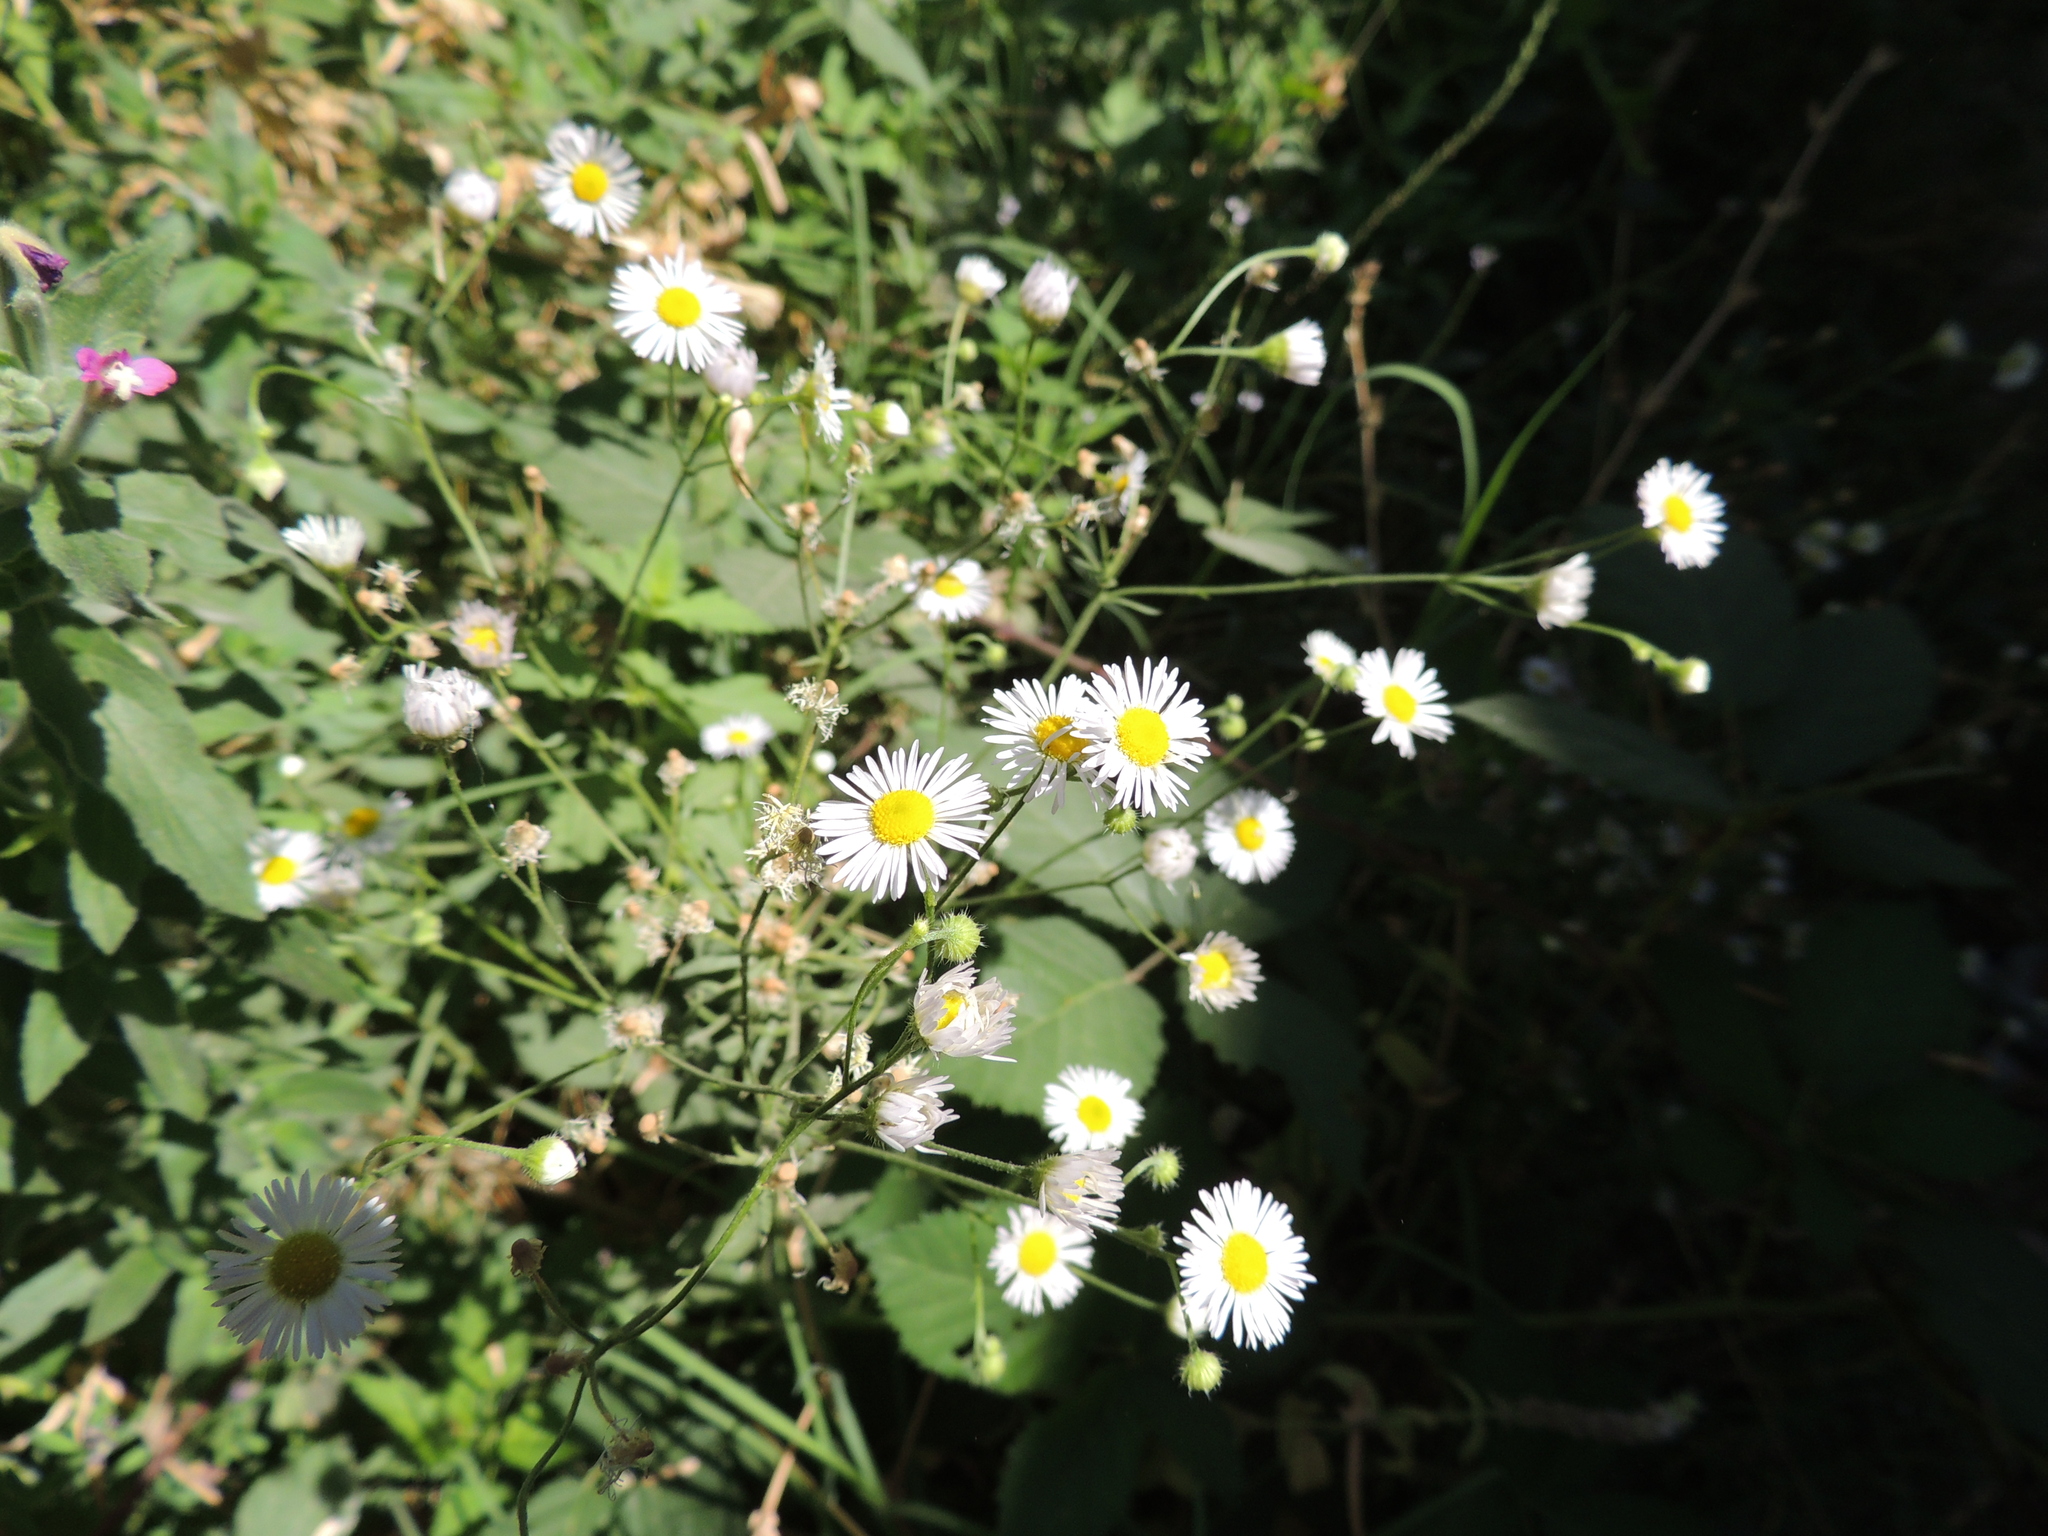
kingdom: Plantae
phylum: Tracheophyta
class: Magnoliopsida
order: Asterales
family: Asteraceae
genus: Erigeron
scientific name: Erigeron annuus
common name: Tall fleabane
